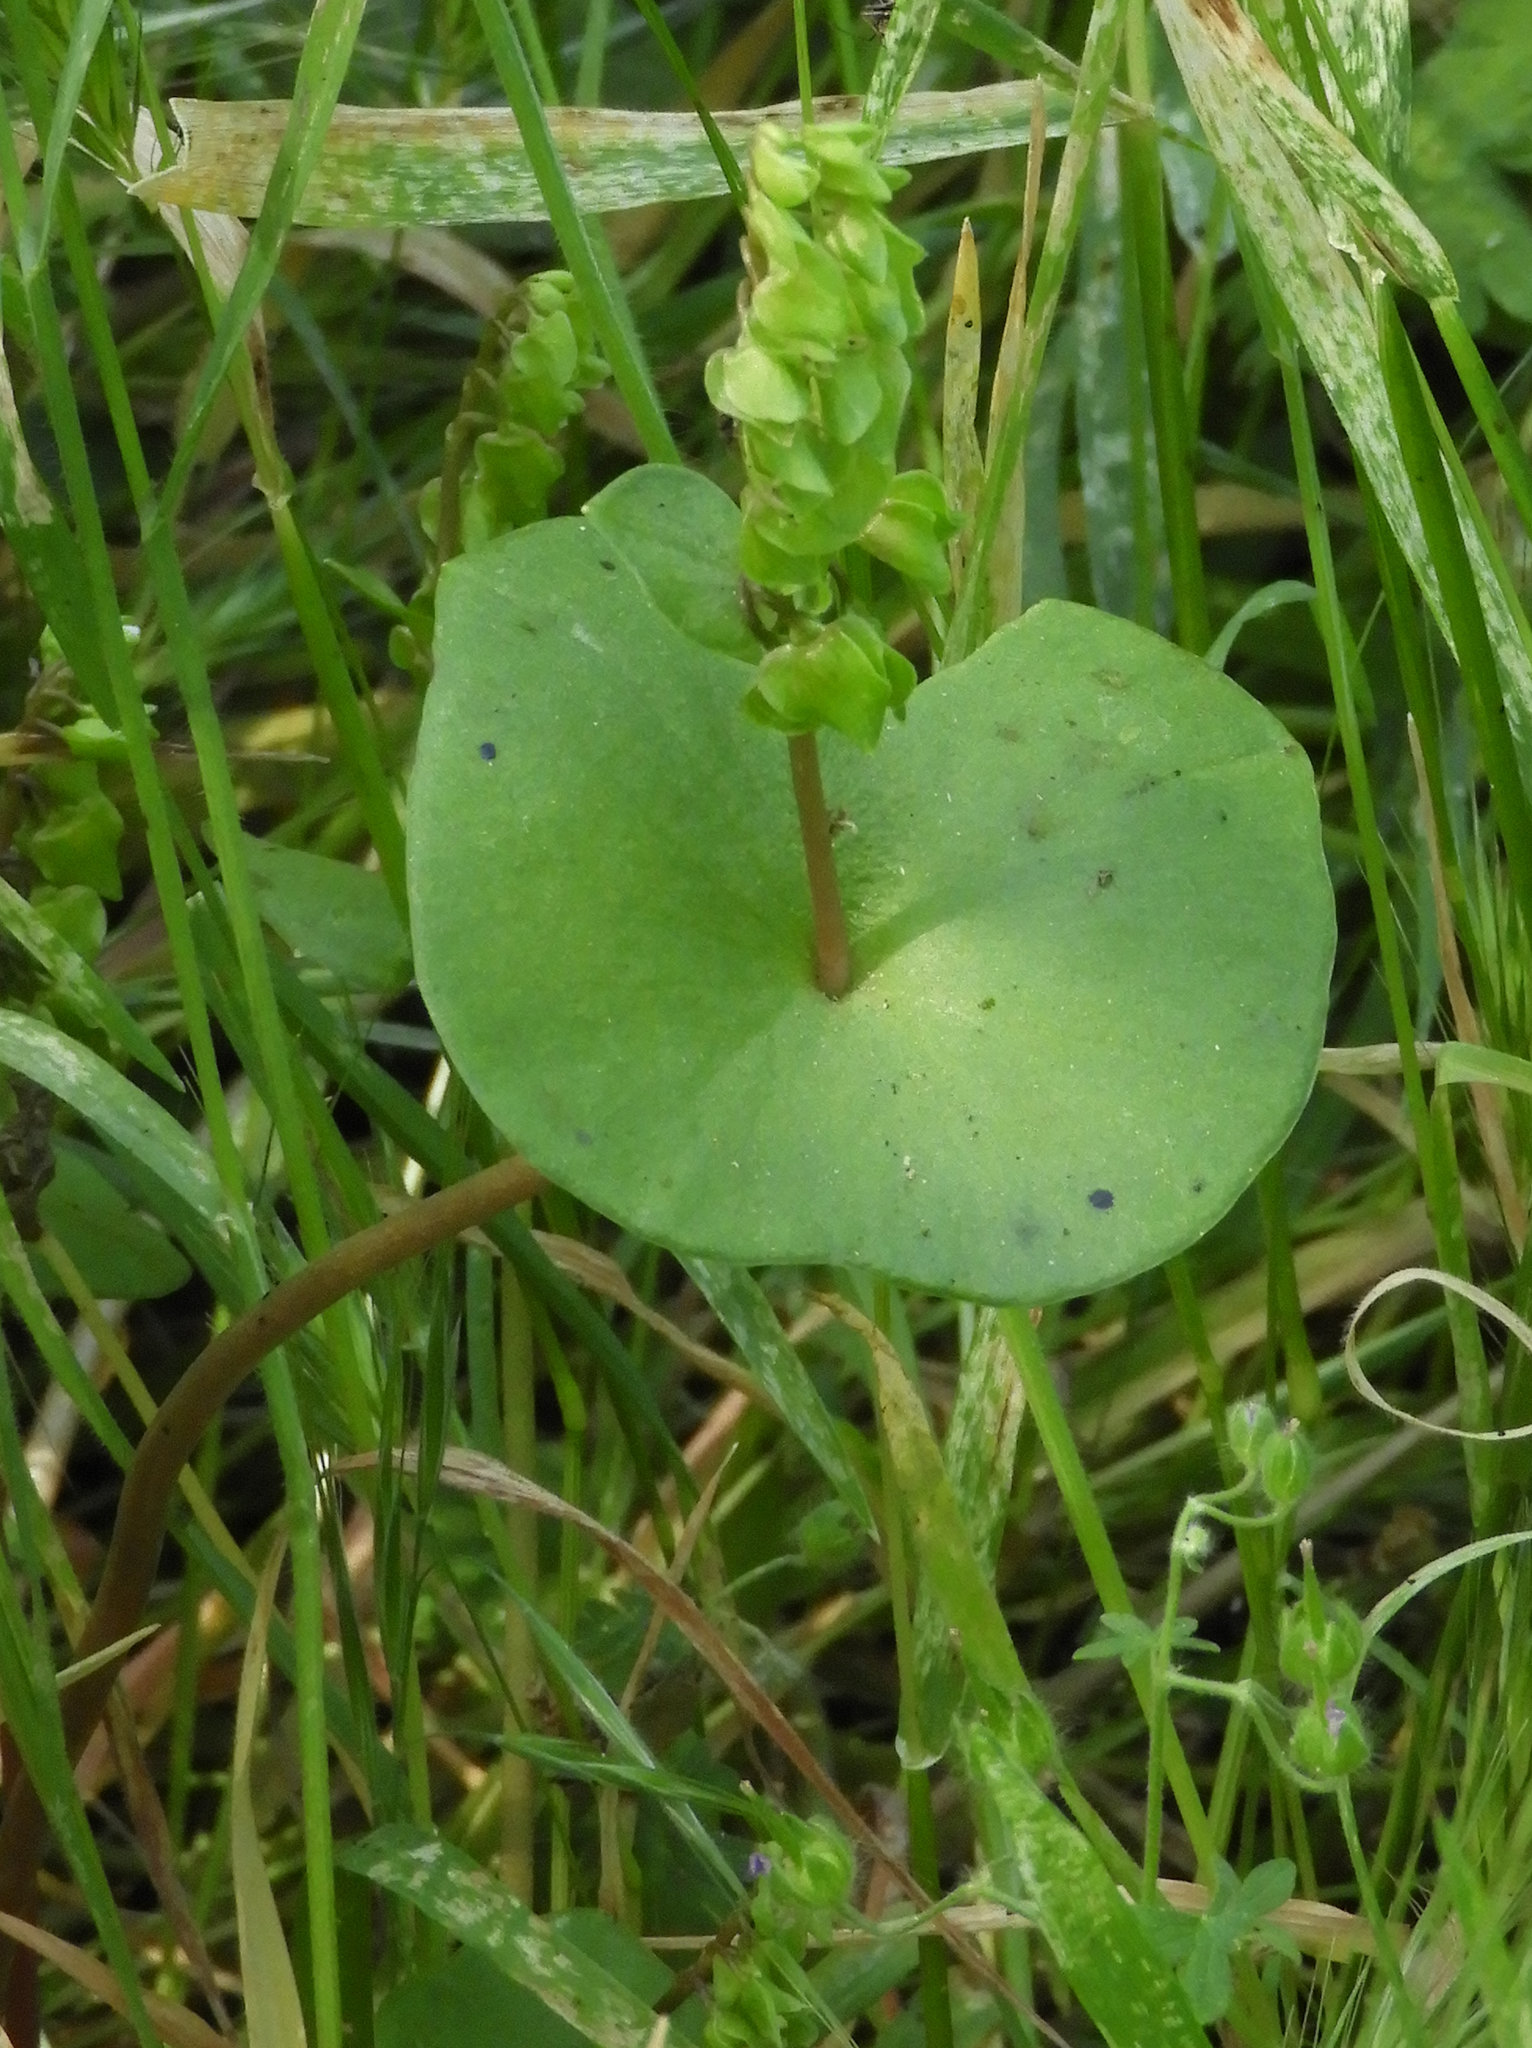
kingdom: Plantae
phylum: Tracheophyta
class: Magnoliopsida
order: Caryophyllales
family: Montiaceae
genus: Claytonia
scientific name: Claytonia perfoliata
